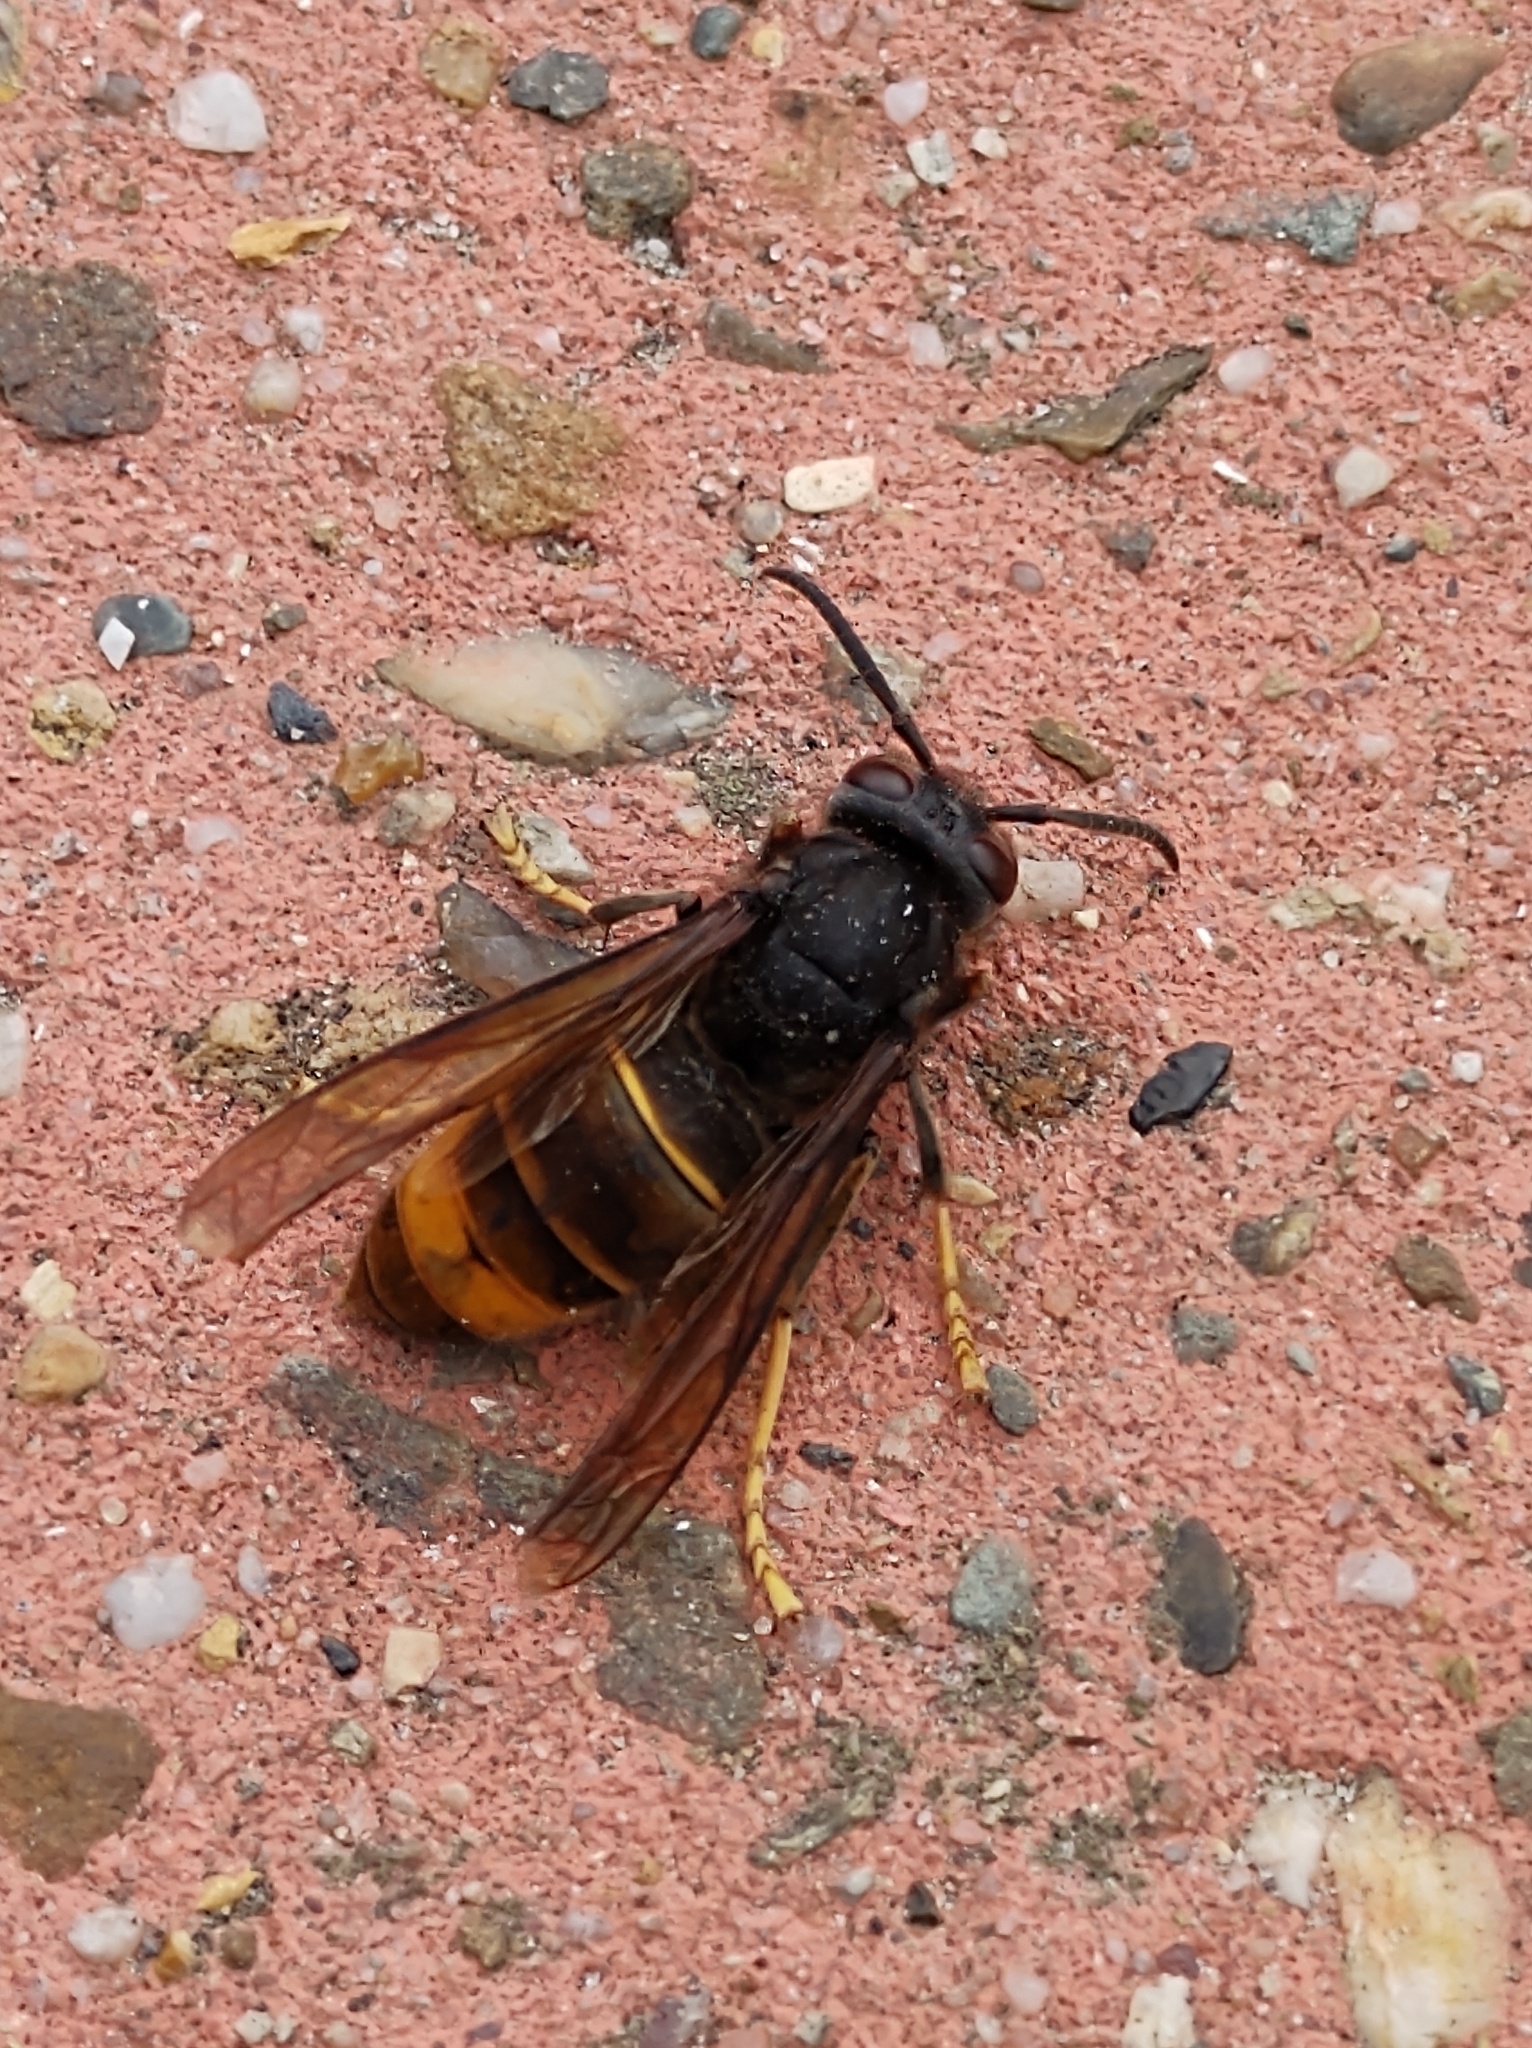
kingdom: Animalia
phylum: Arthropoda
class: Insecta
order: Hymenoptera
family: Vespidae
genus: Vespa
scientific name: Vespa velutina
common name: Asian hornet
